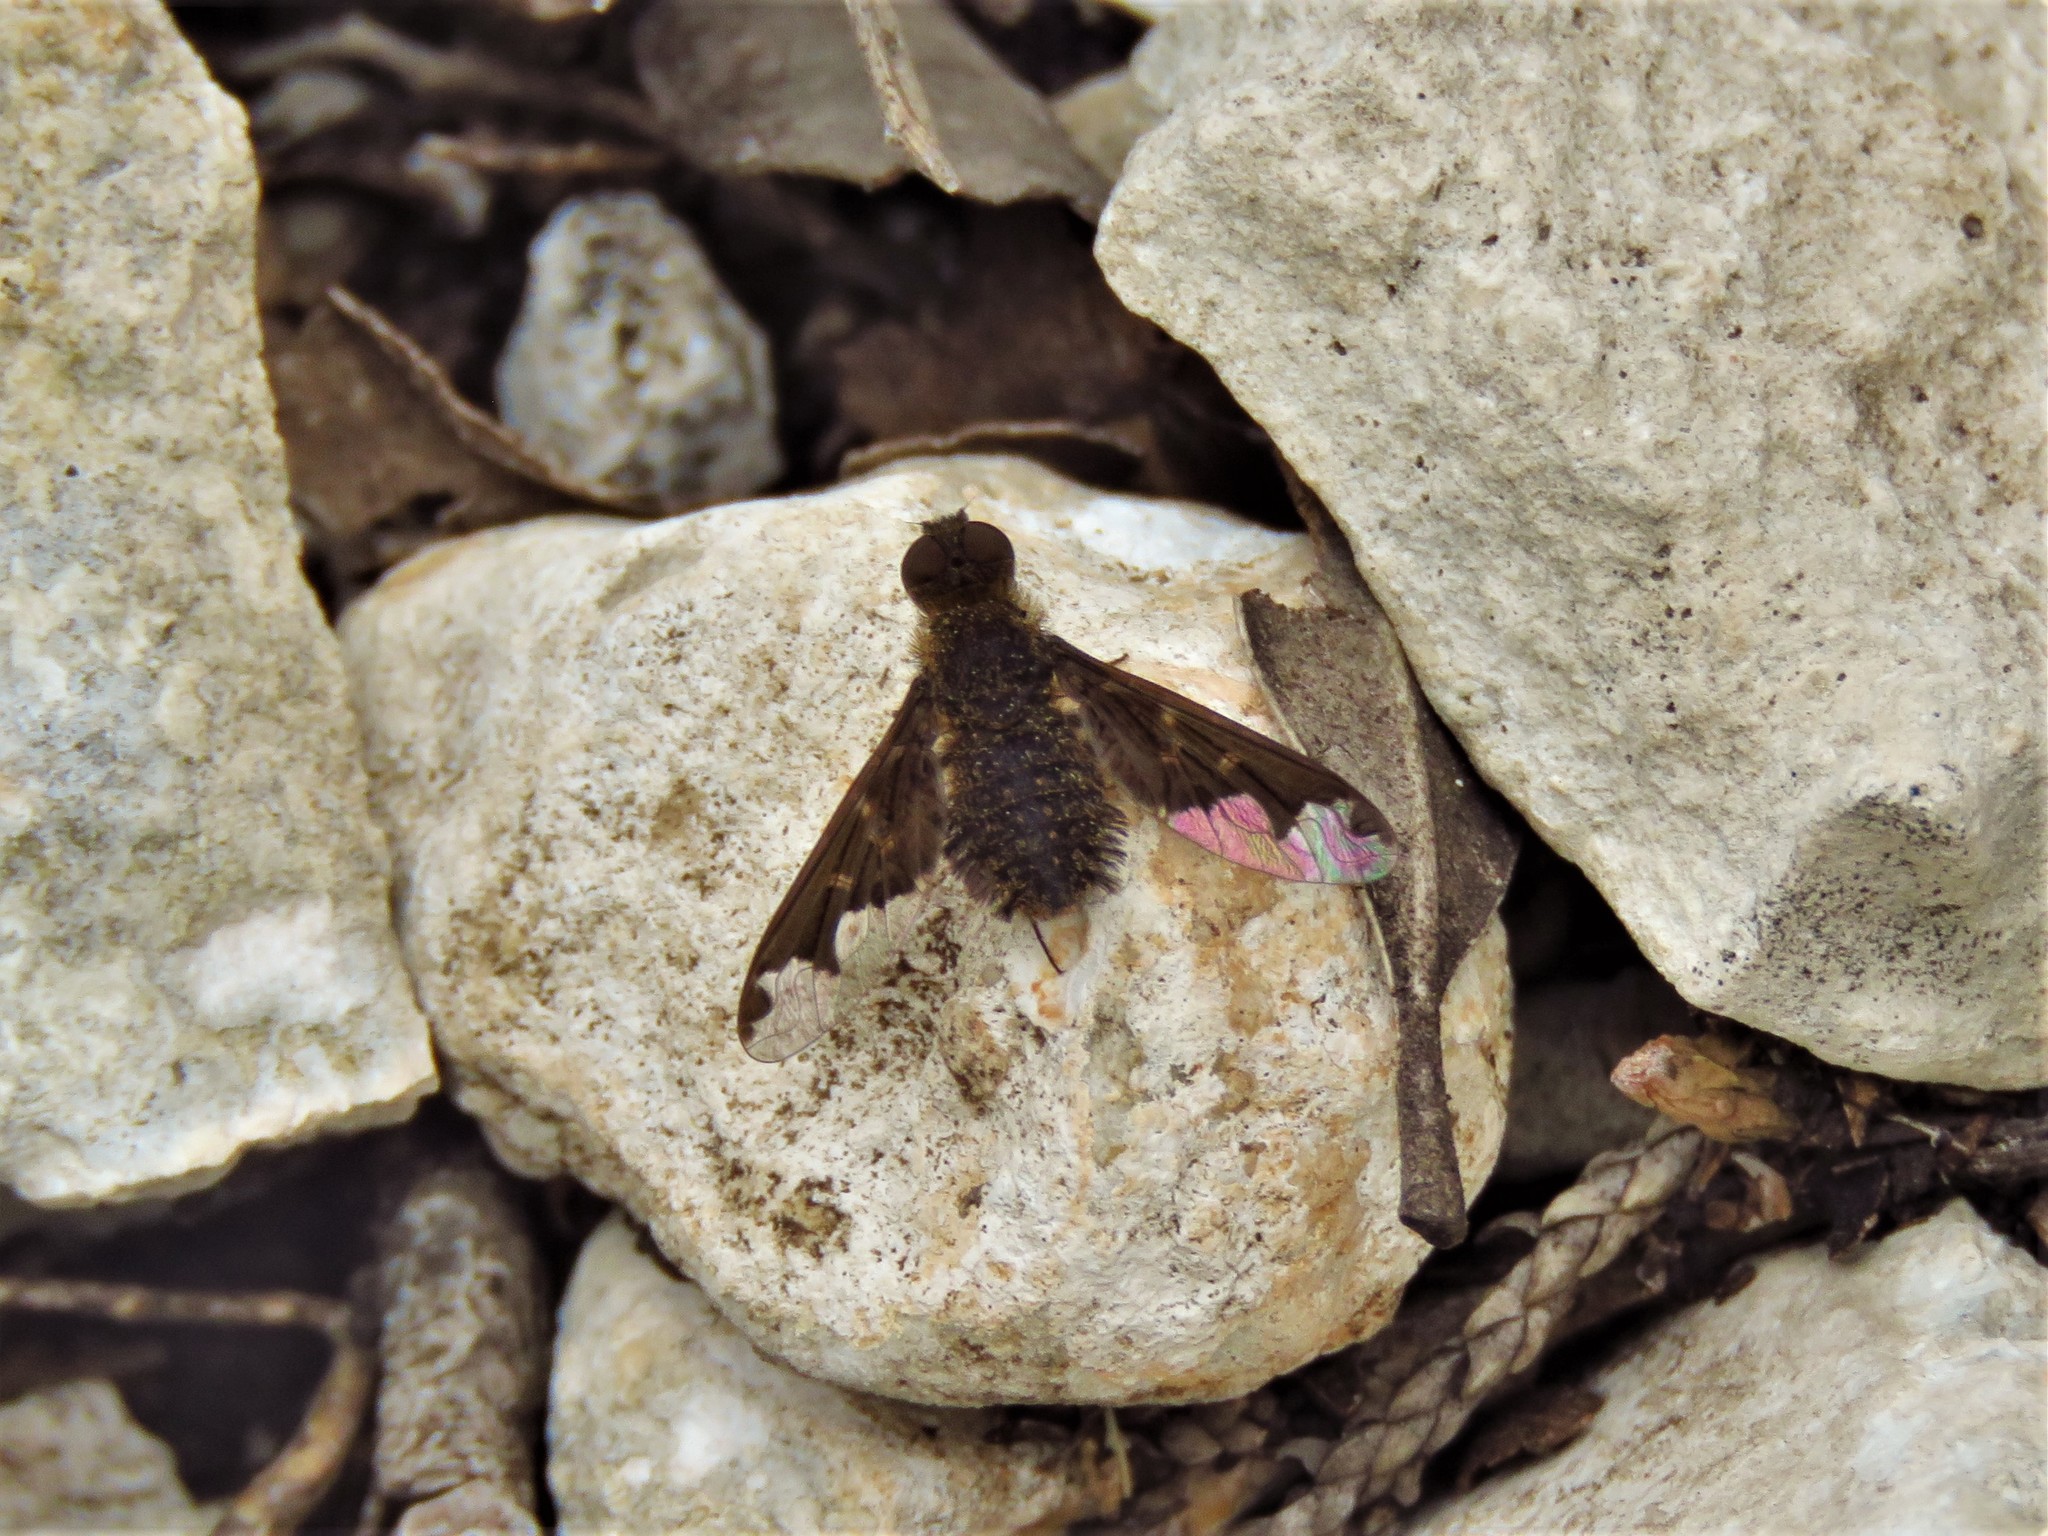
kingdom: Animalia
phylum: Arthropoda
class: Insecta
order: Diptera
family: Bombyliidae
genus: Hemipenthes
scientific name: Hemipenthes sinuosus
